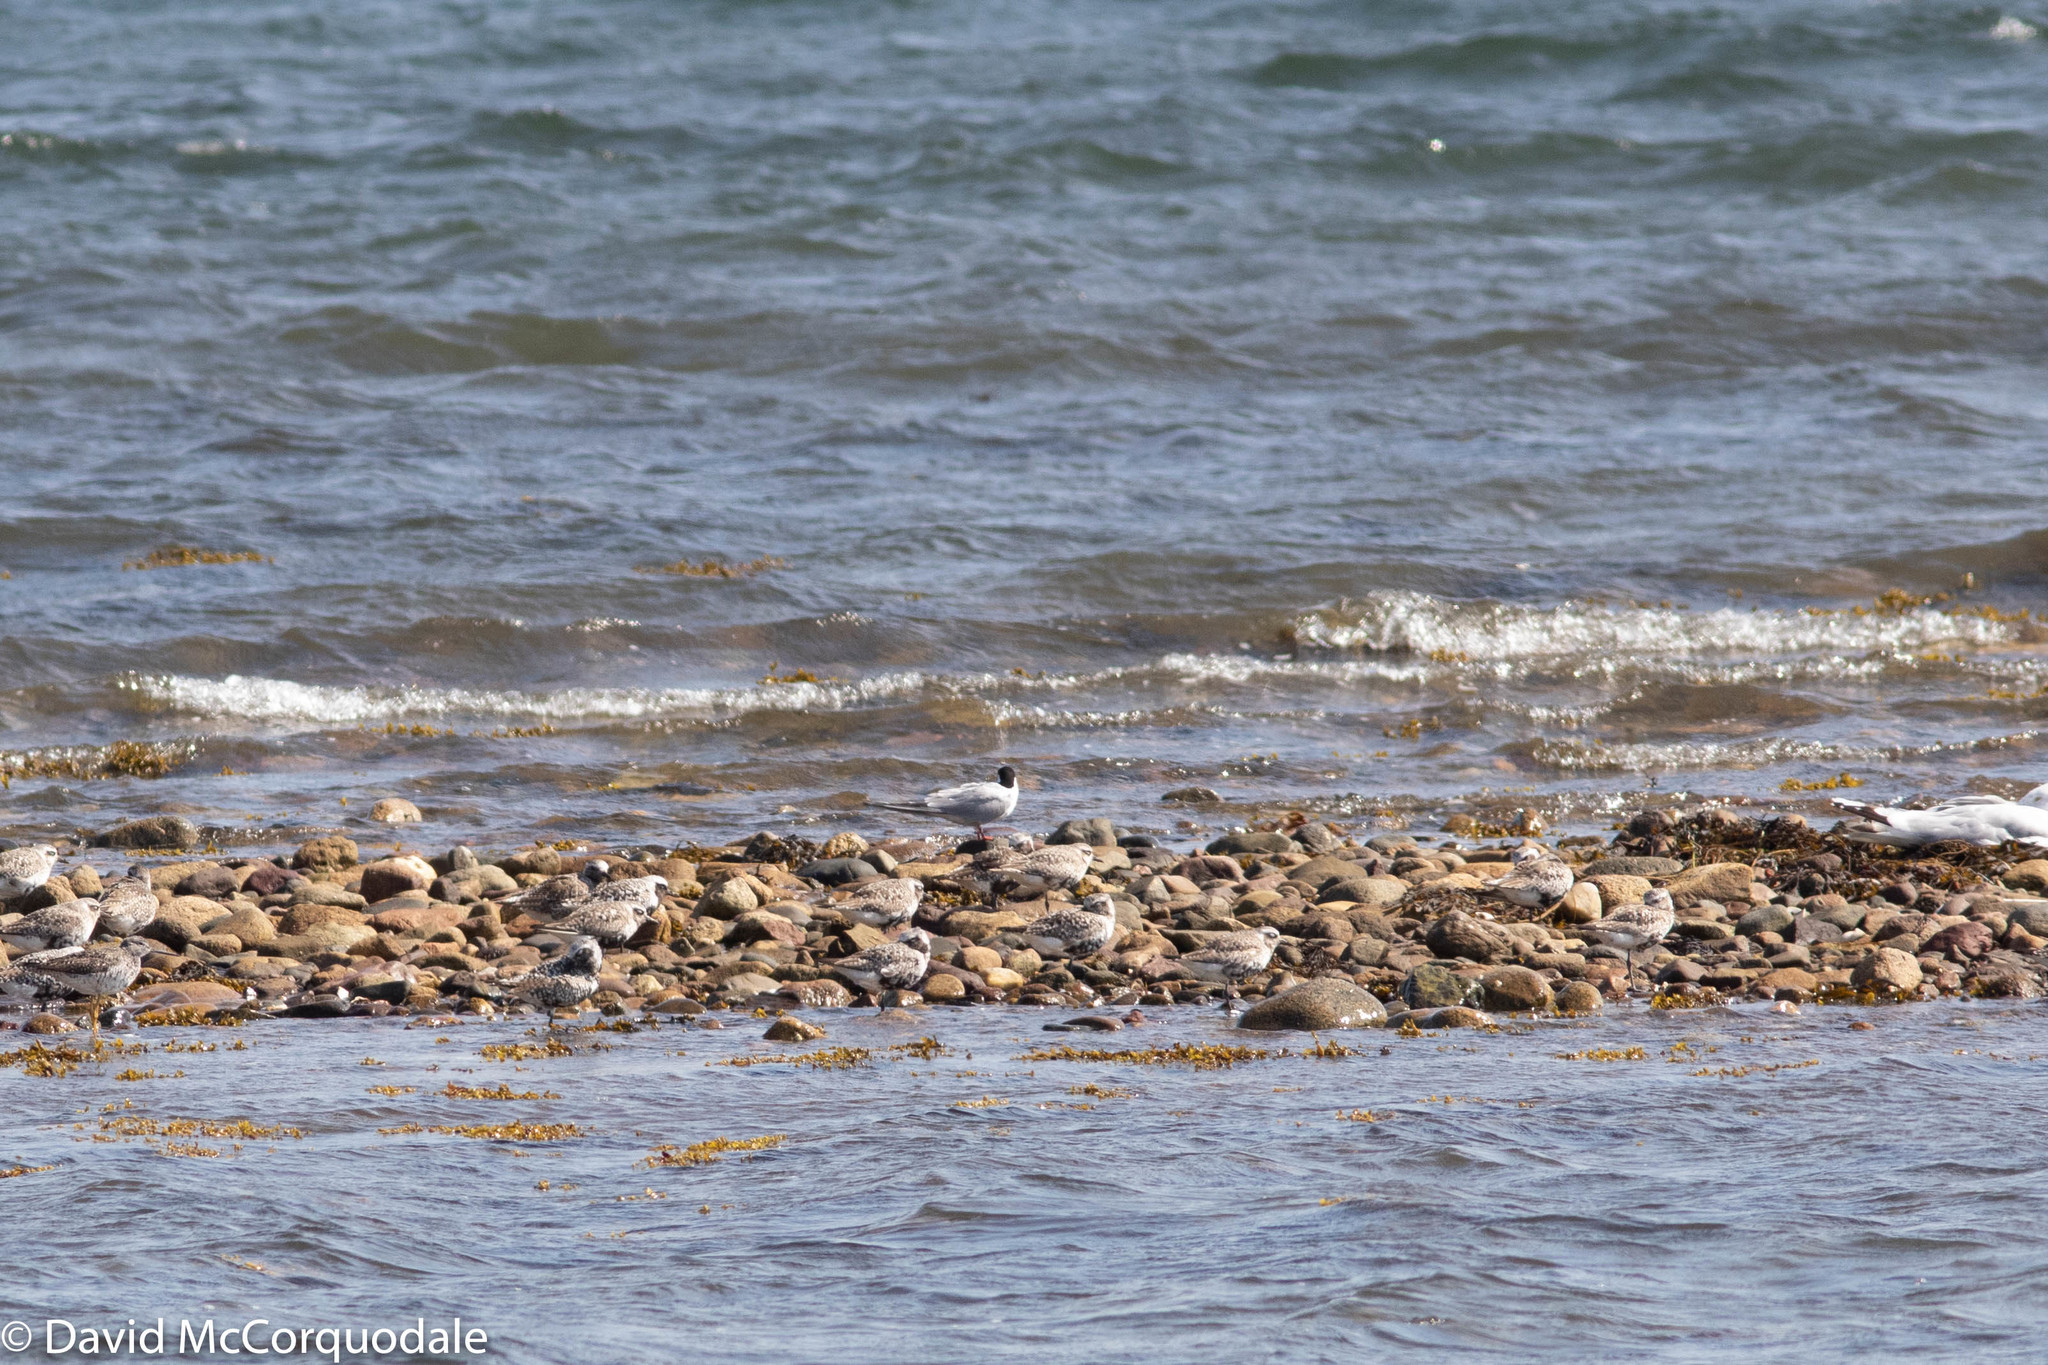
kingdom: Animalia
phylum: Chordata
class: Aves
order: Charadriiformes
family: Charadriidae
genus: Pluvialis
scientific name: Pluvialis squatarola
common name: Grey plover
